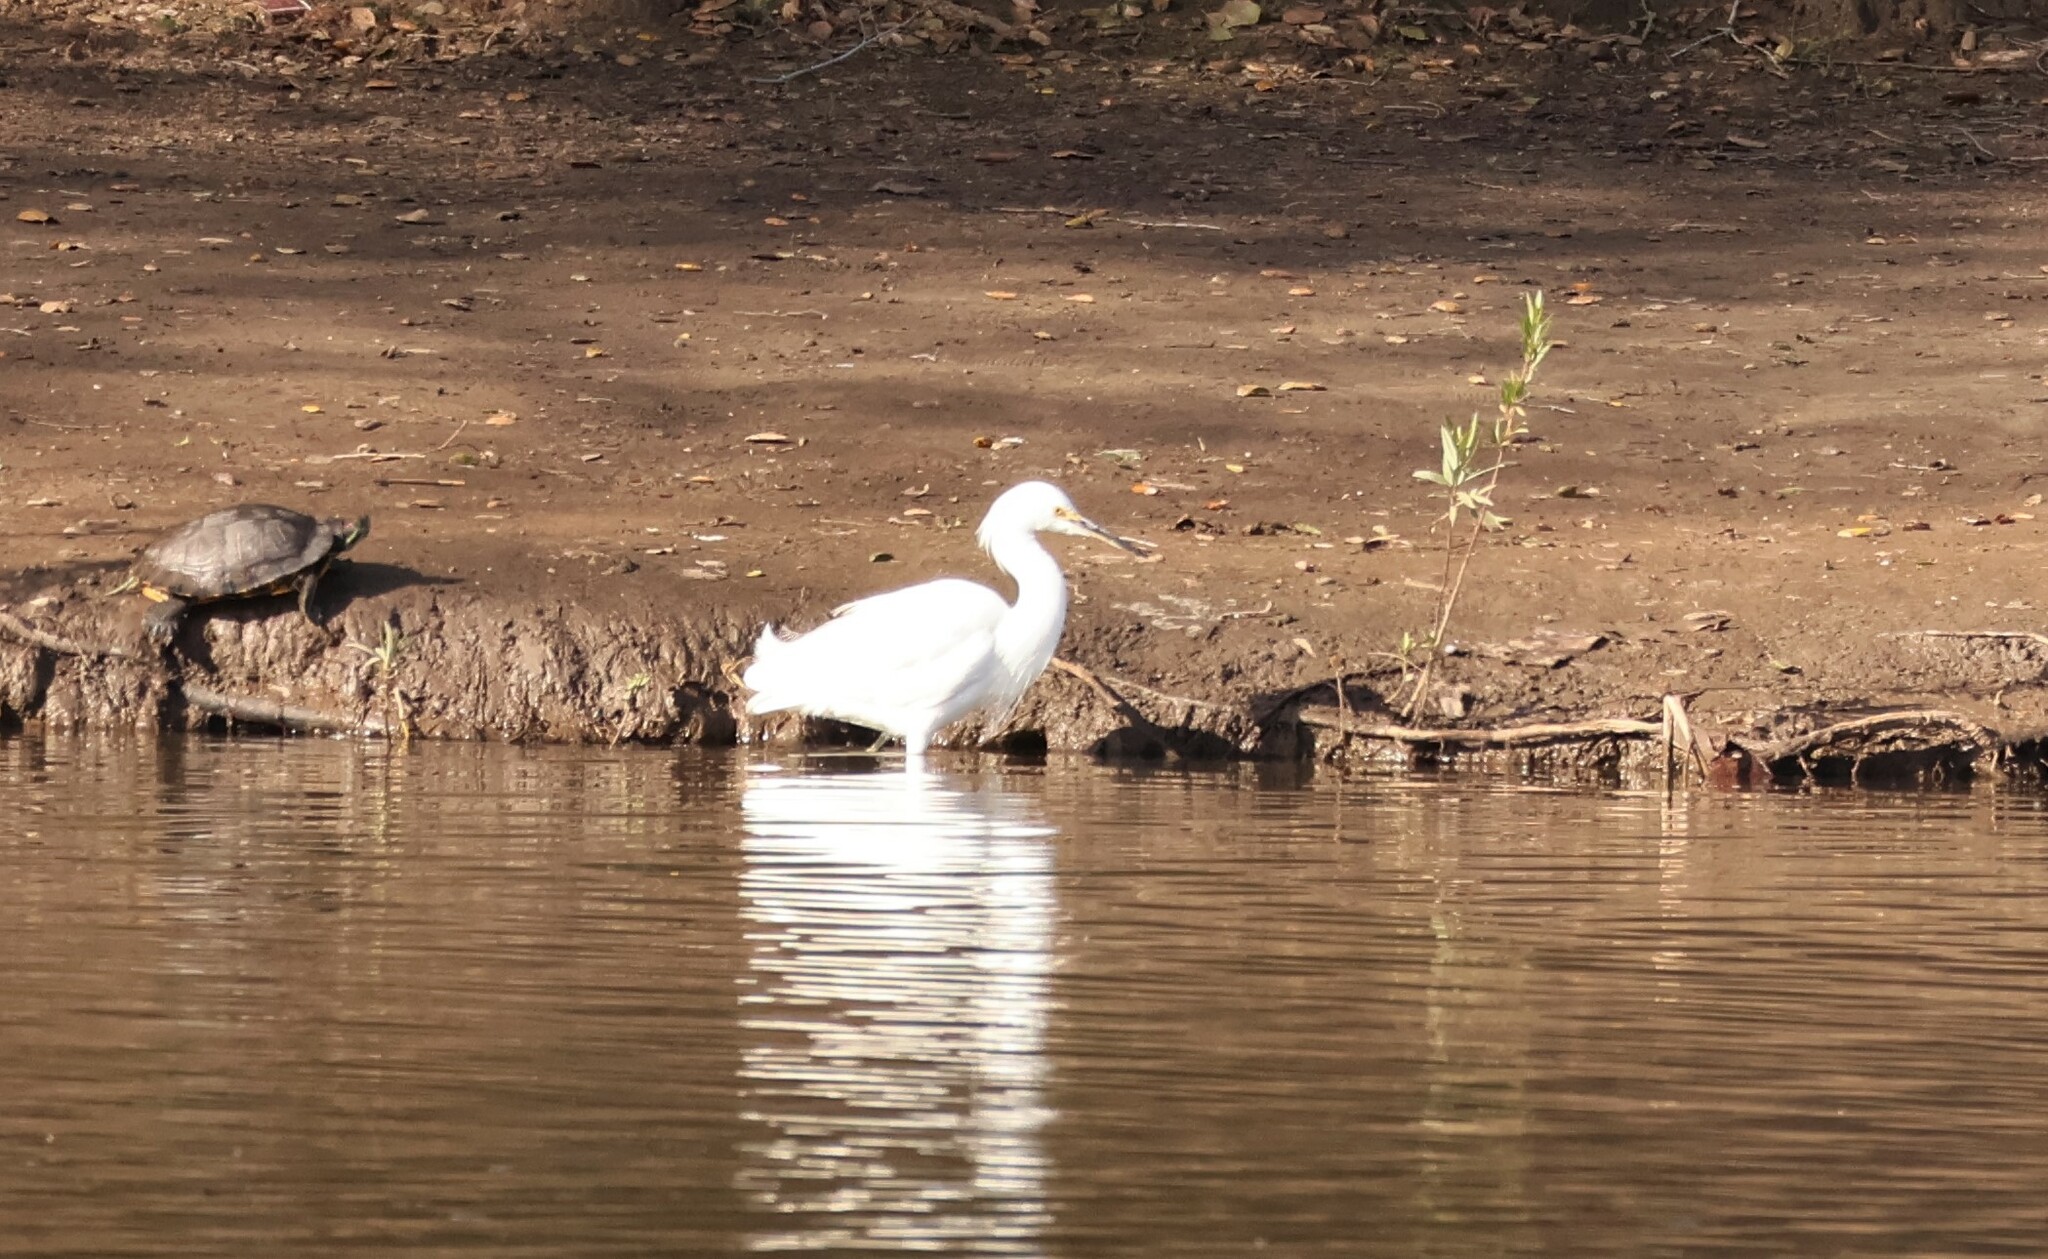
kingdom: Animalia
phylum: Chordata
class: Aves
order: Pelecaniformes
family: Ardeidae
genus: Egretta
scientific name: Egretta thula
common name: Snowy egret
